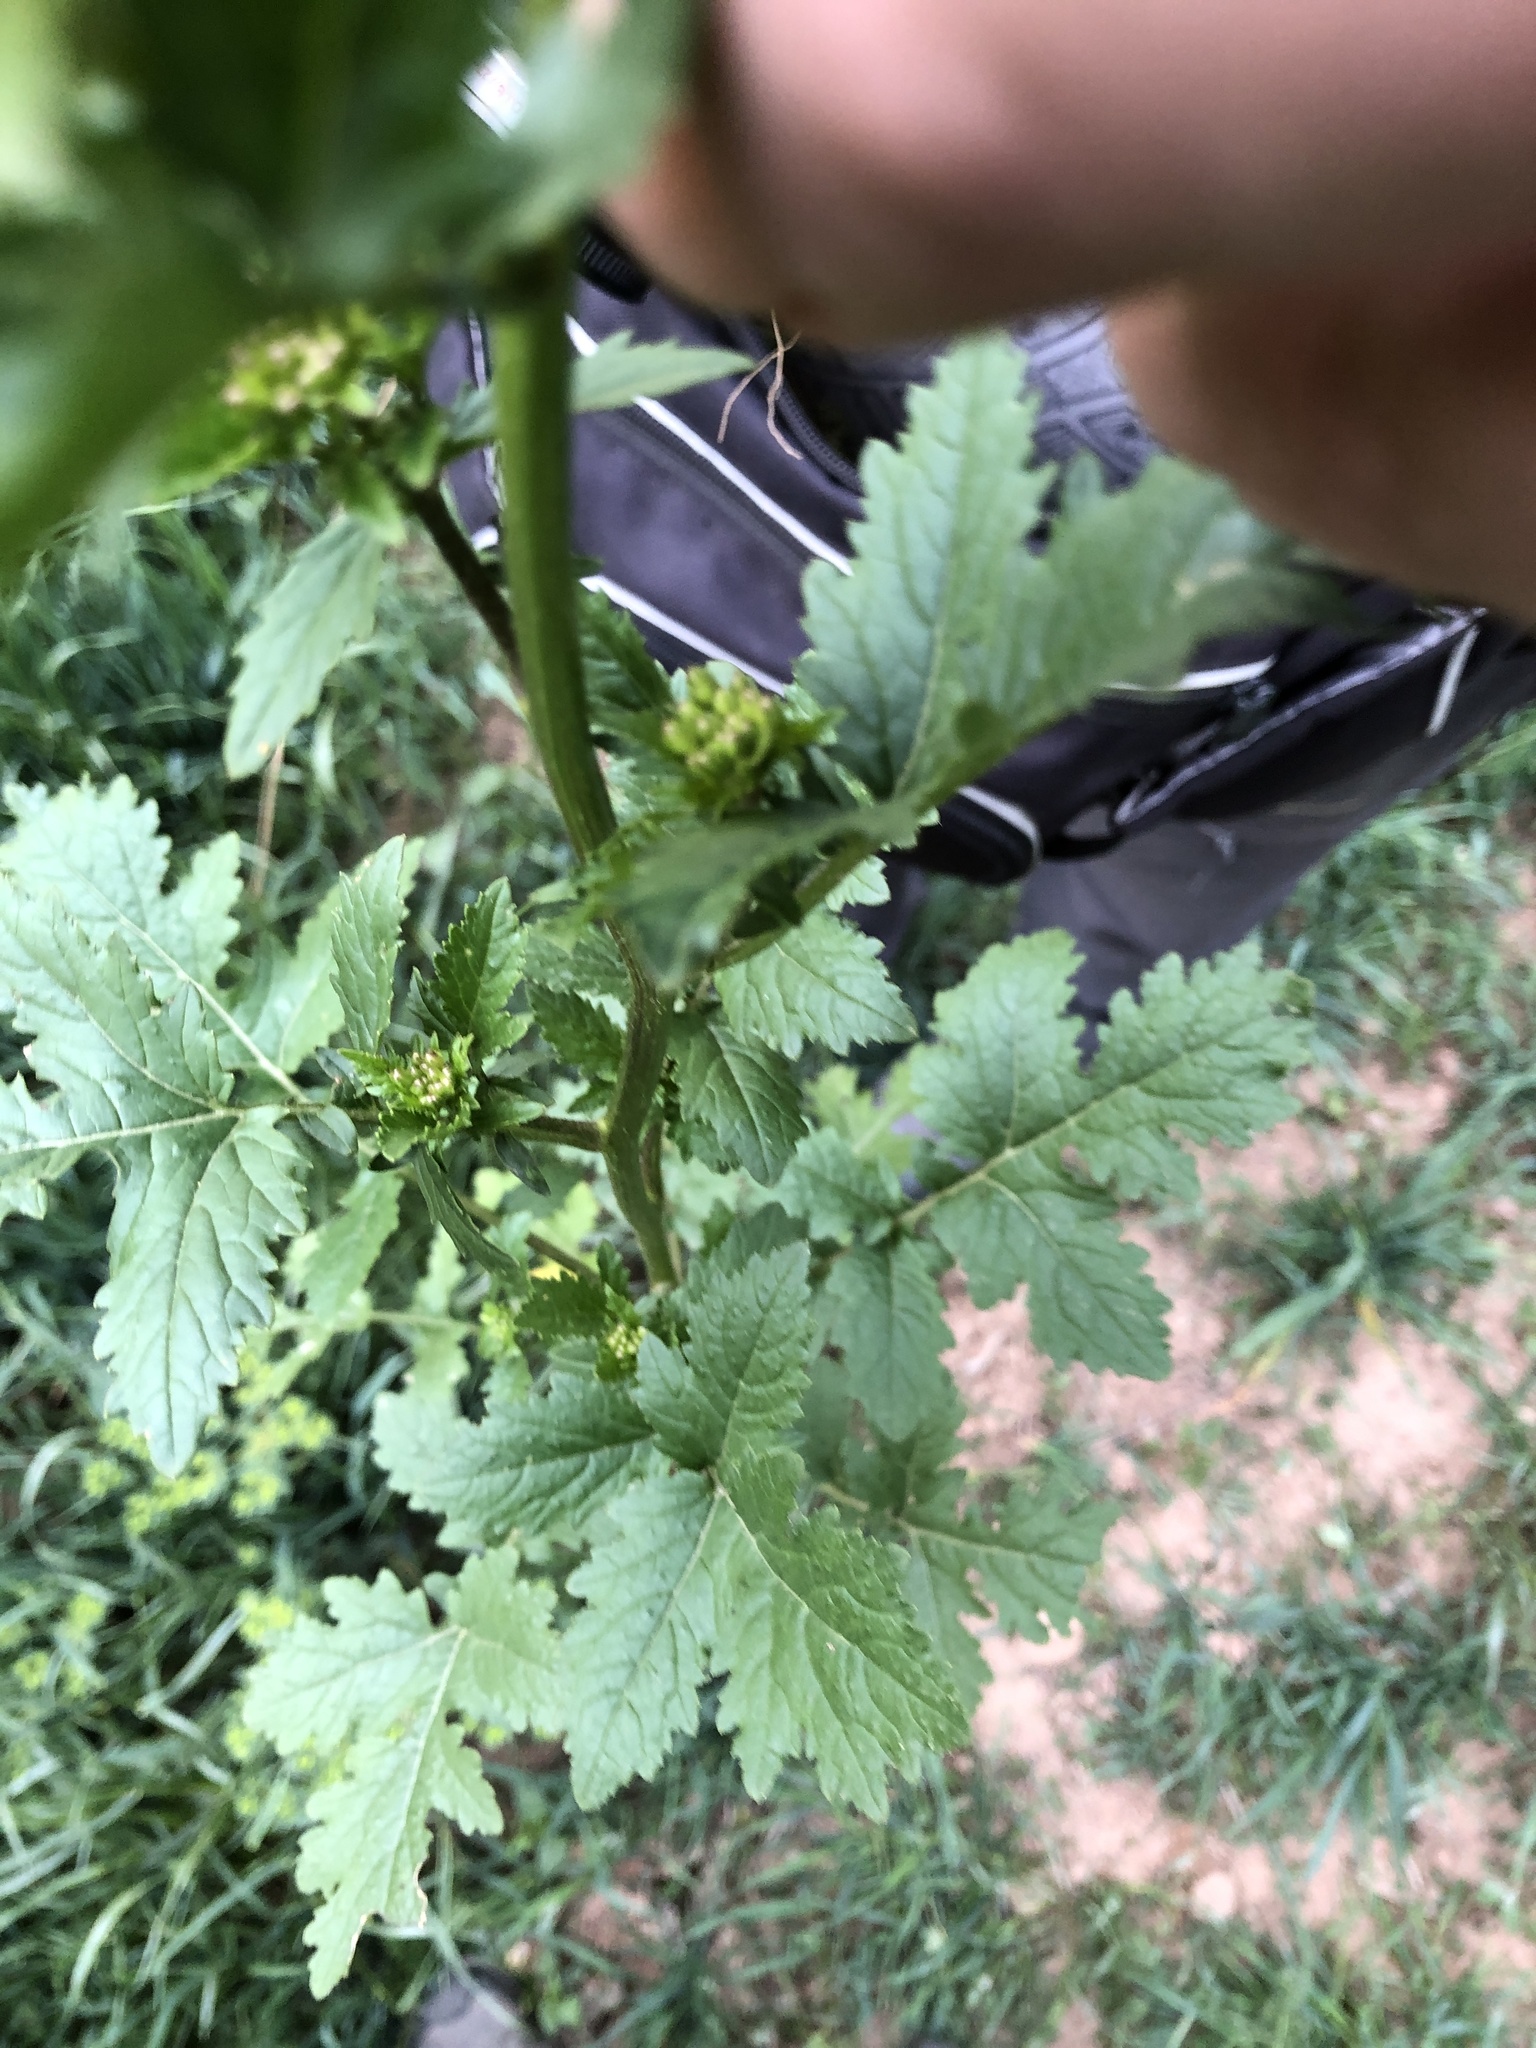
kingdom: Plantae
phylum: Tracheophyta
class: Magnoliopsida
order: Brassicales
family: Brassicaceae
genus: Erucastrum
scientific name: Erucastrum nasturtiifolium
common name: Watercress-leaf rocket
